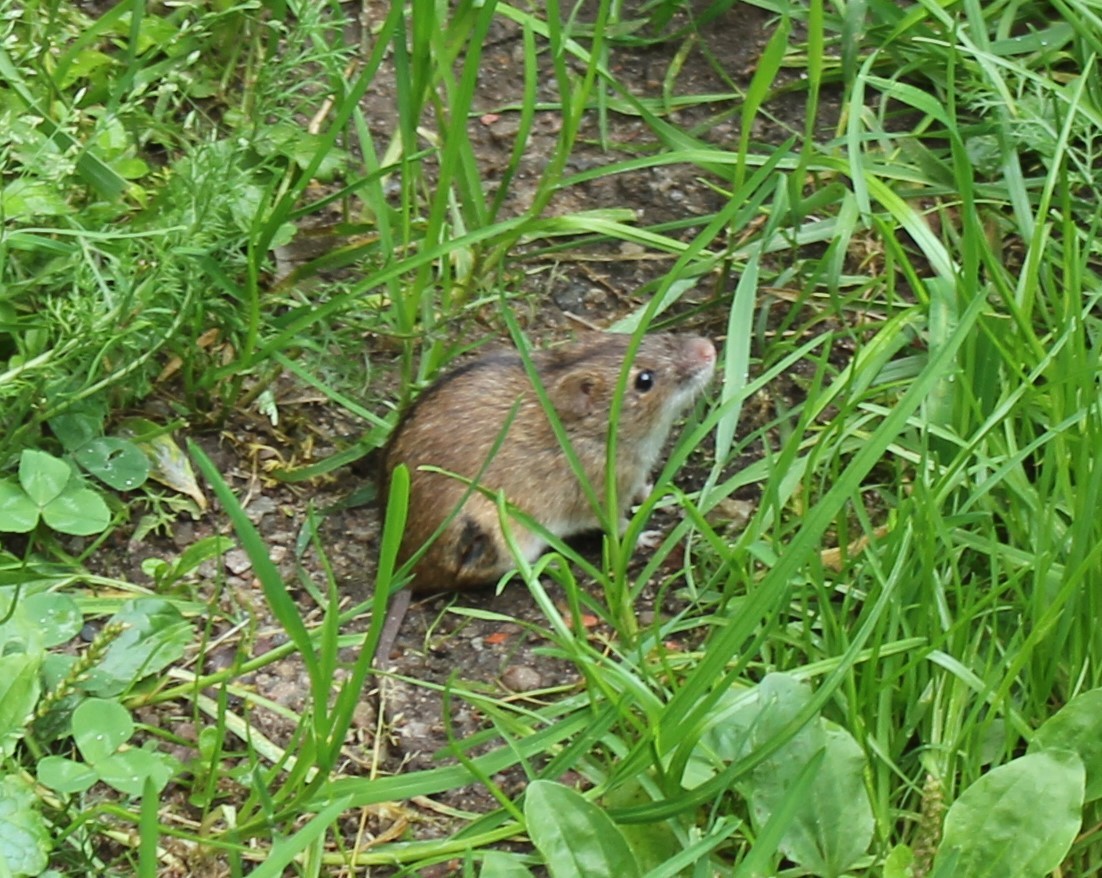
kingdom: Animalia
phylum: Chordata
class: Mammalia
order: Rodentia
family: Muridae
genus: Apodemus
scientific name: Apodemus agrarius
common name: Striped field mouse
